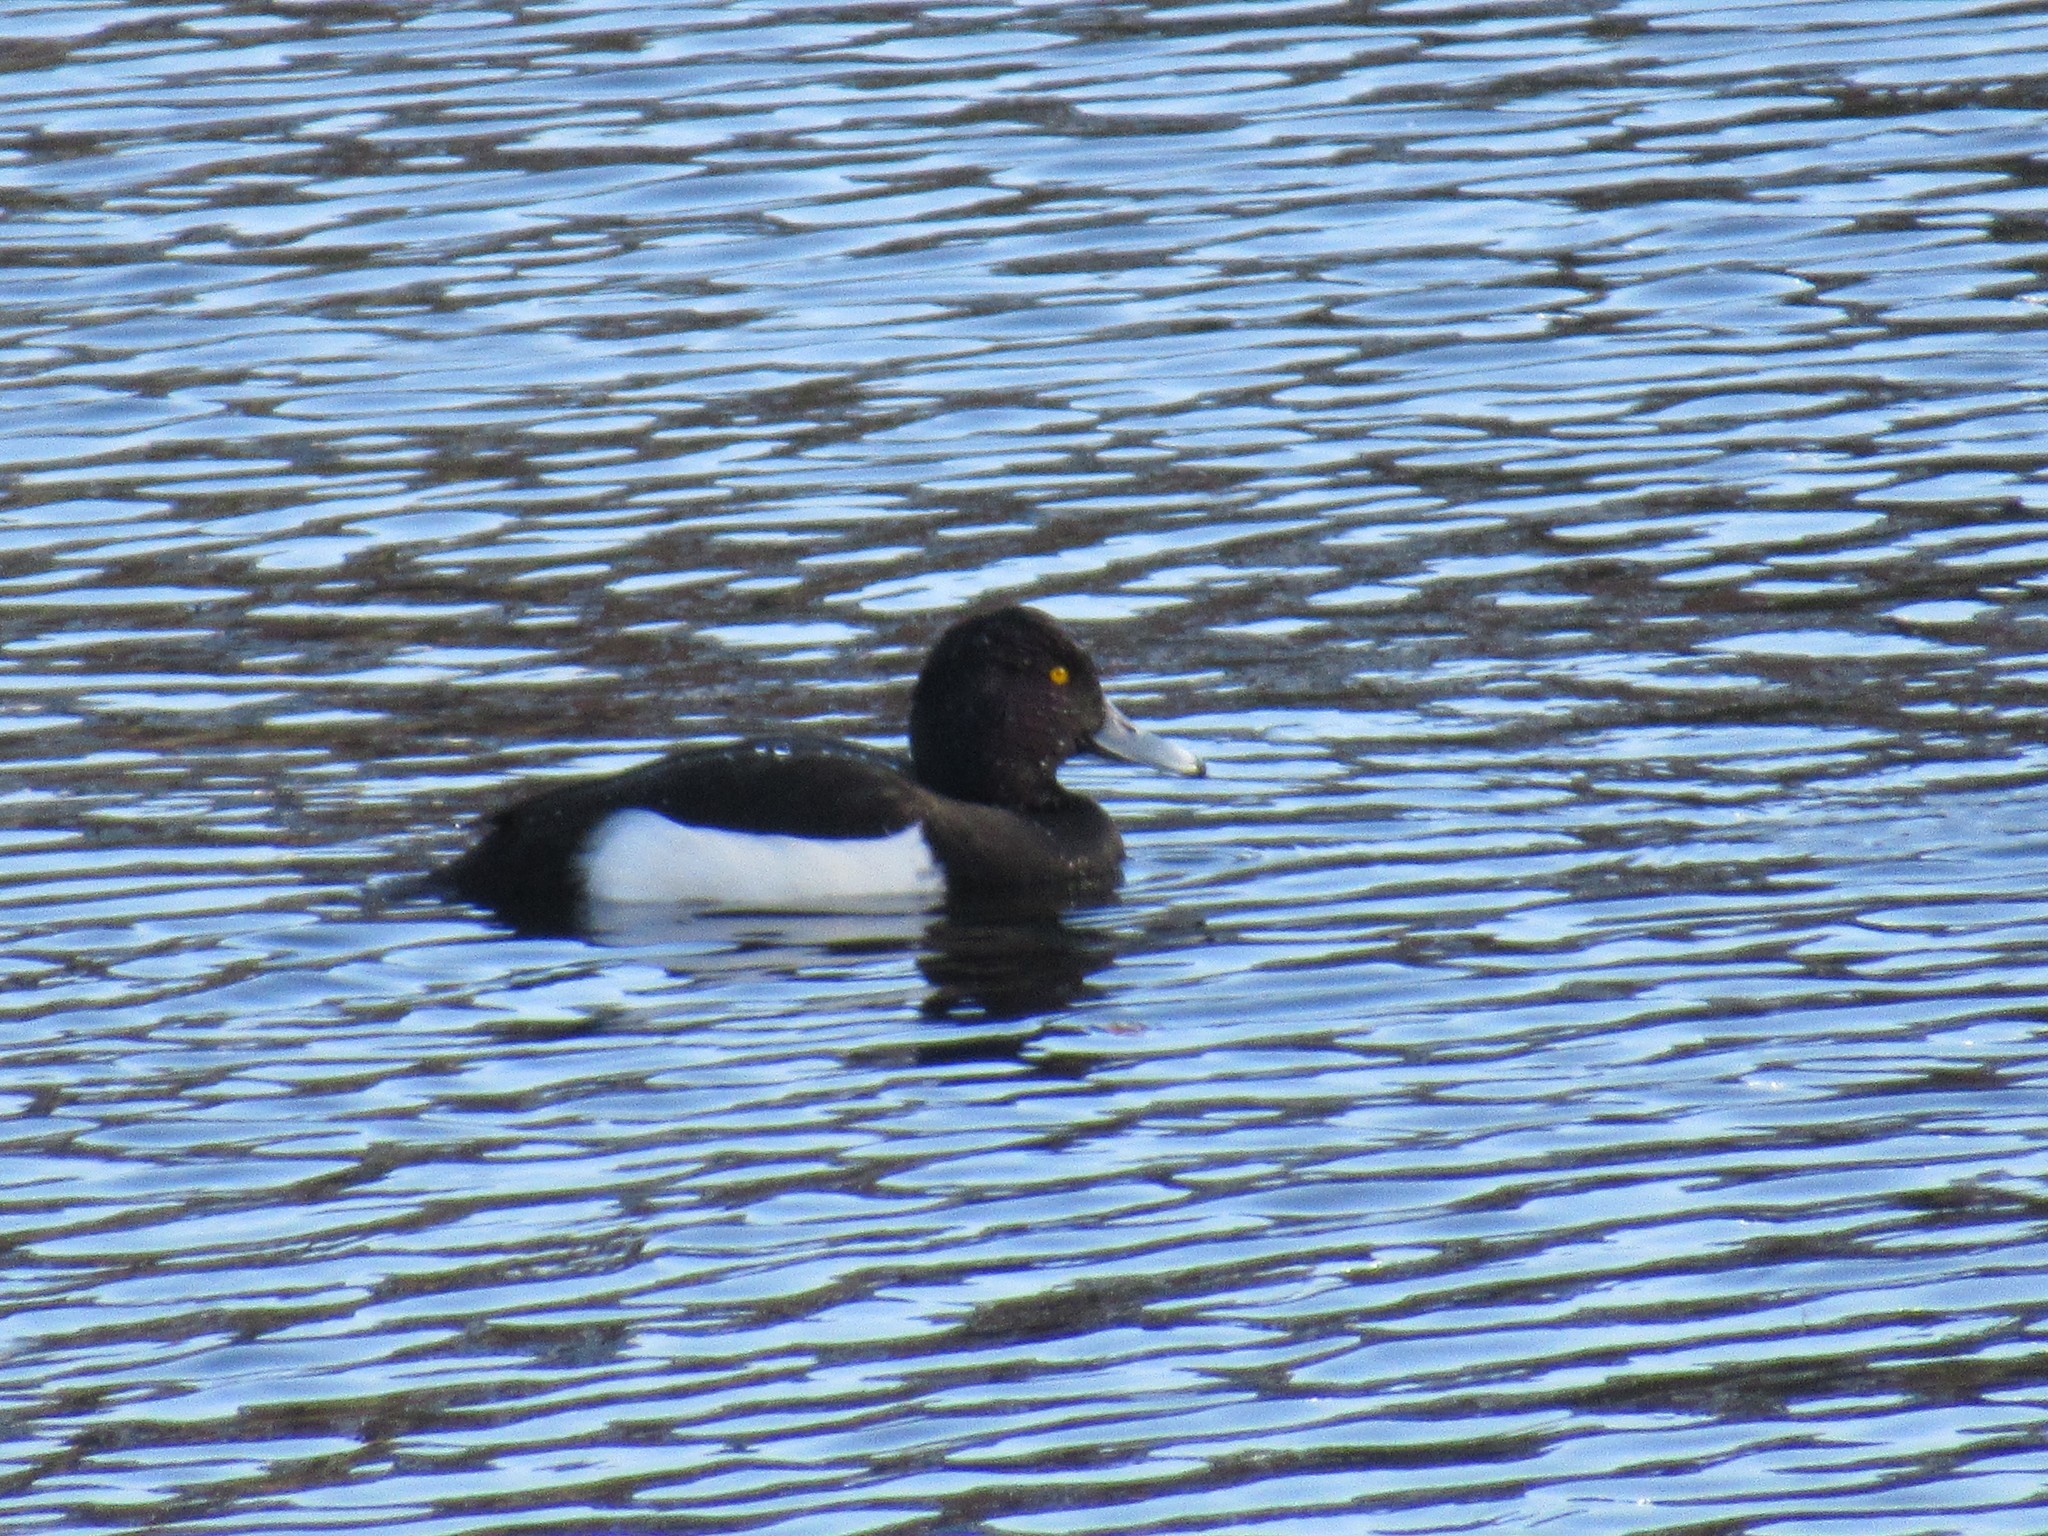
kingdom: Animalia
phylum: Chordata
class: Aves
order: Anseriformes
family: Anatidae
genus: Aythya
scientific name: Aythya fuligula
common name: Tufted duck
